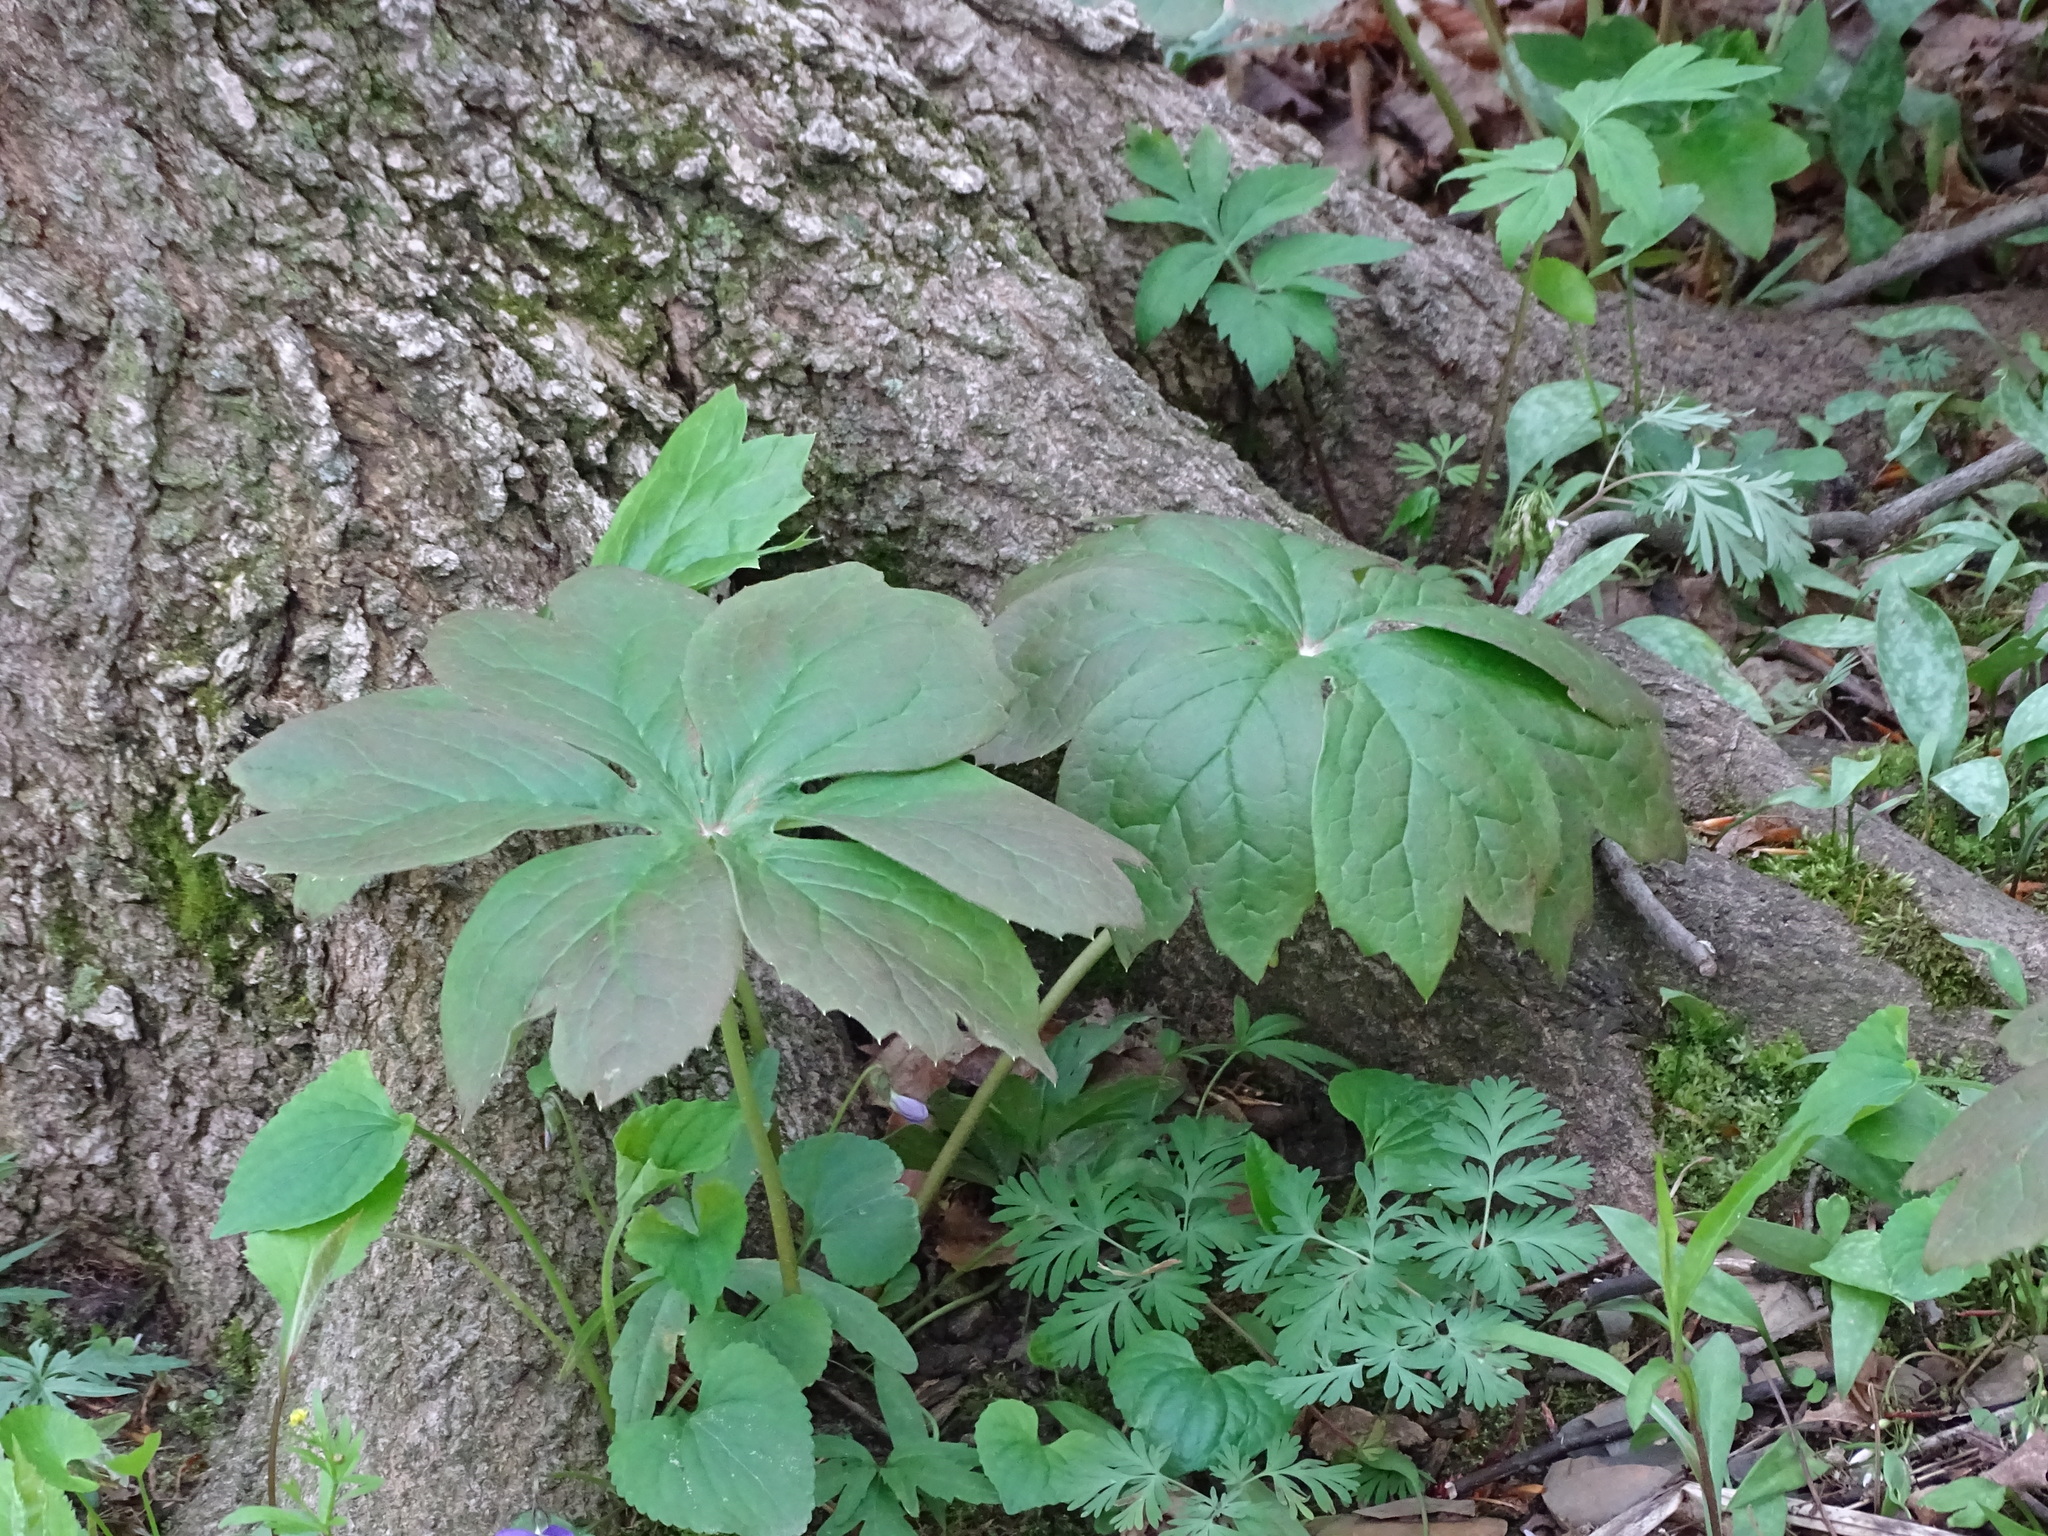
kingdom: Plantae
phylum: Tracheophyta
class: Magnoliopsida
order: Ranunculales
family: Berberidaceae
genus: Podophyllum
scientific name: Podophyllum peltatum
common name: Wild mandrake
